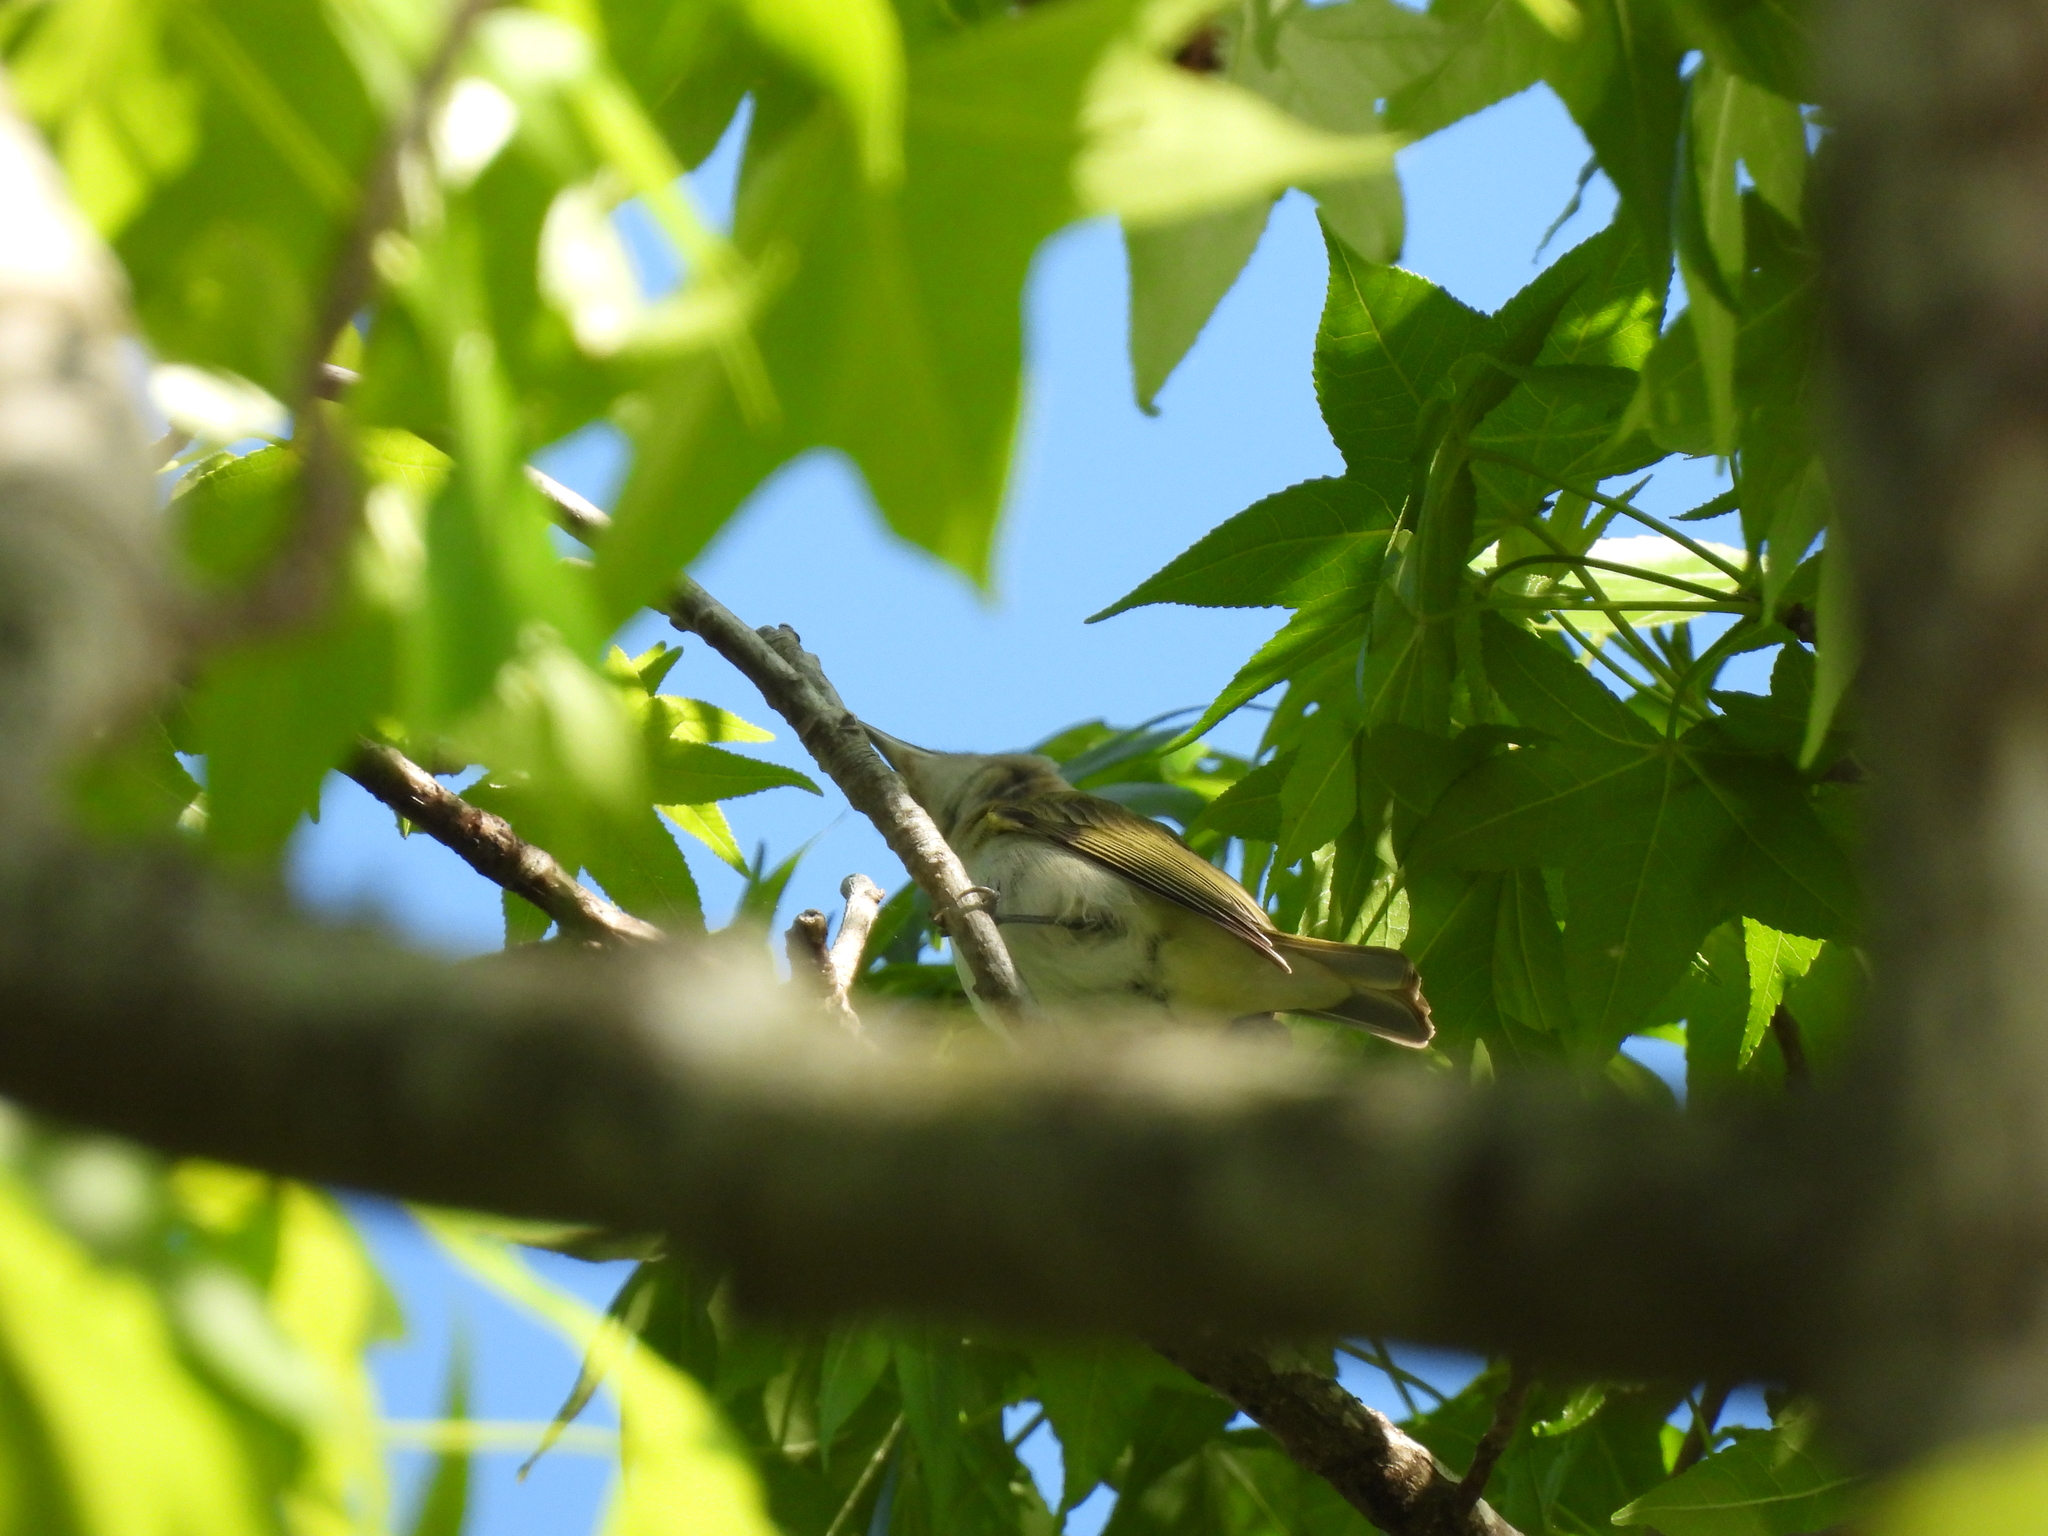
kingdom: Animalia
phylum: Chordata
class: Aves
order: Passeriformes
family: Vireonidae
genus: Vireo
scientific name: Vireo olivaceus
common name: Red-eyed vireo
